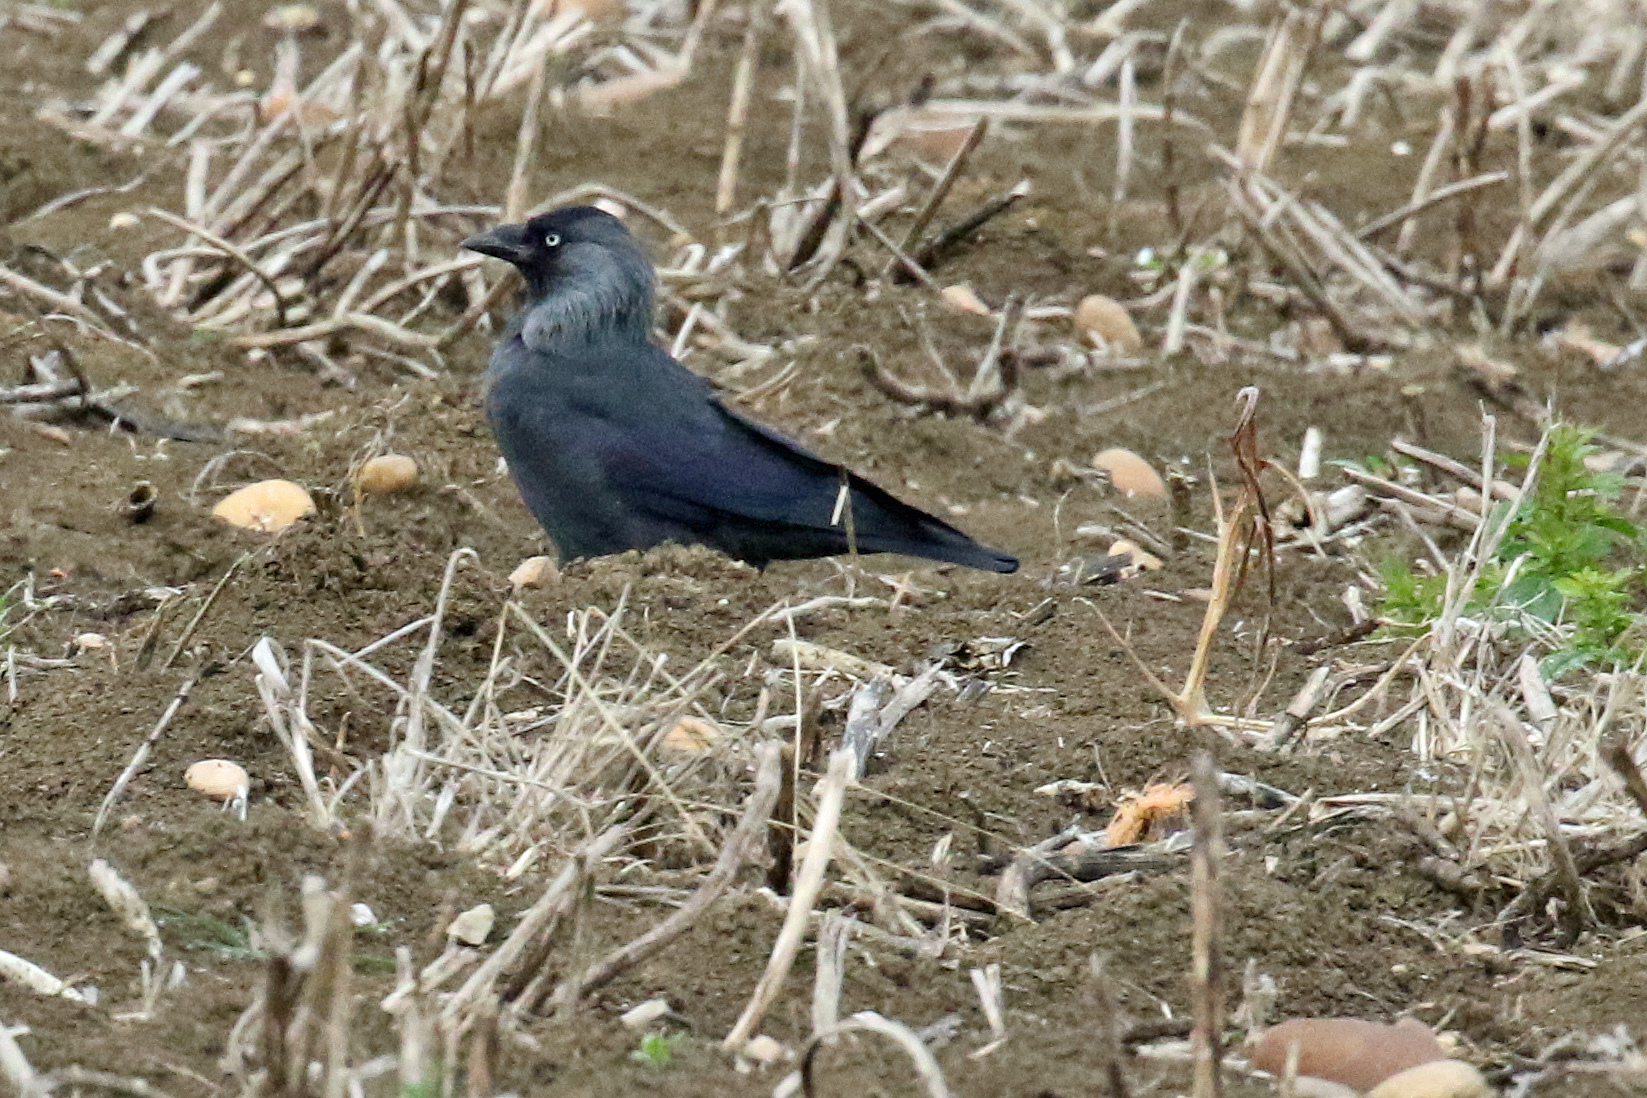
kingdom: Animalia
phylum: Chordata
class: Aves
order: Passeriformes
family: Corvidae
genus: Coloeus
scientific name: Coloeus monedula
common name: Western jackdaw
